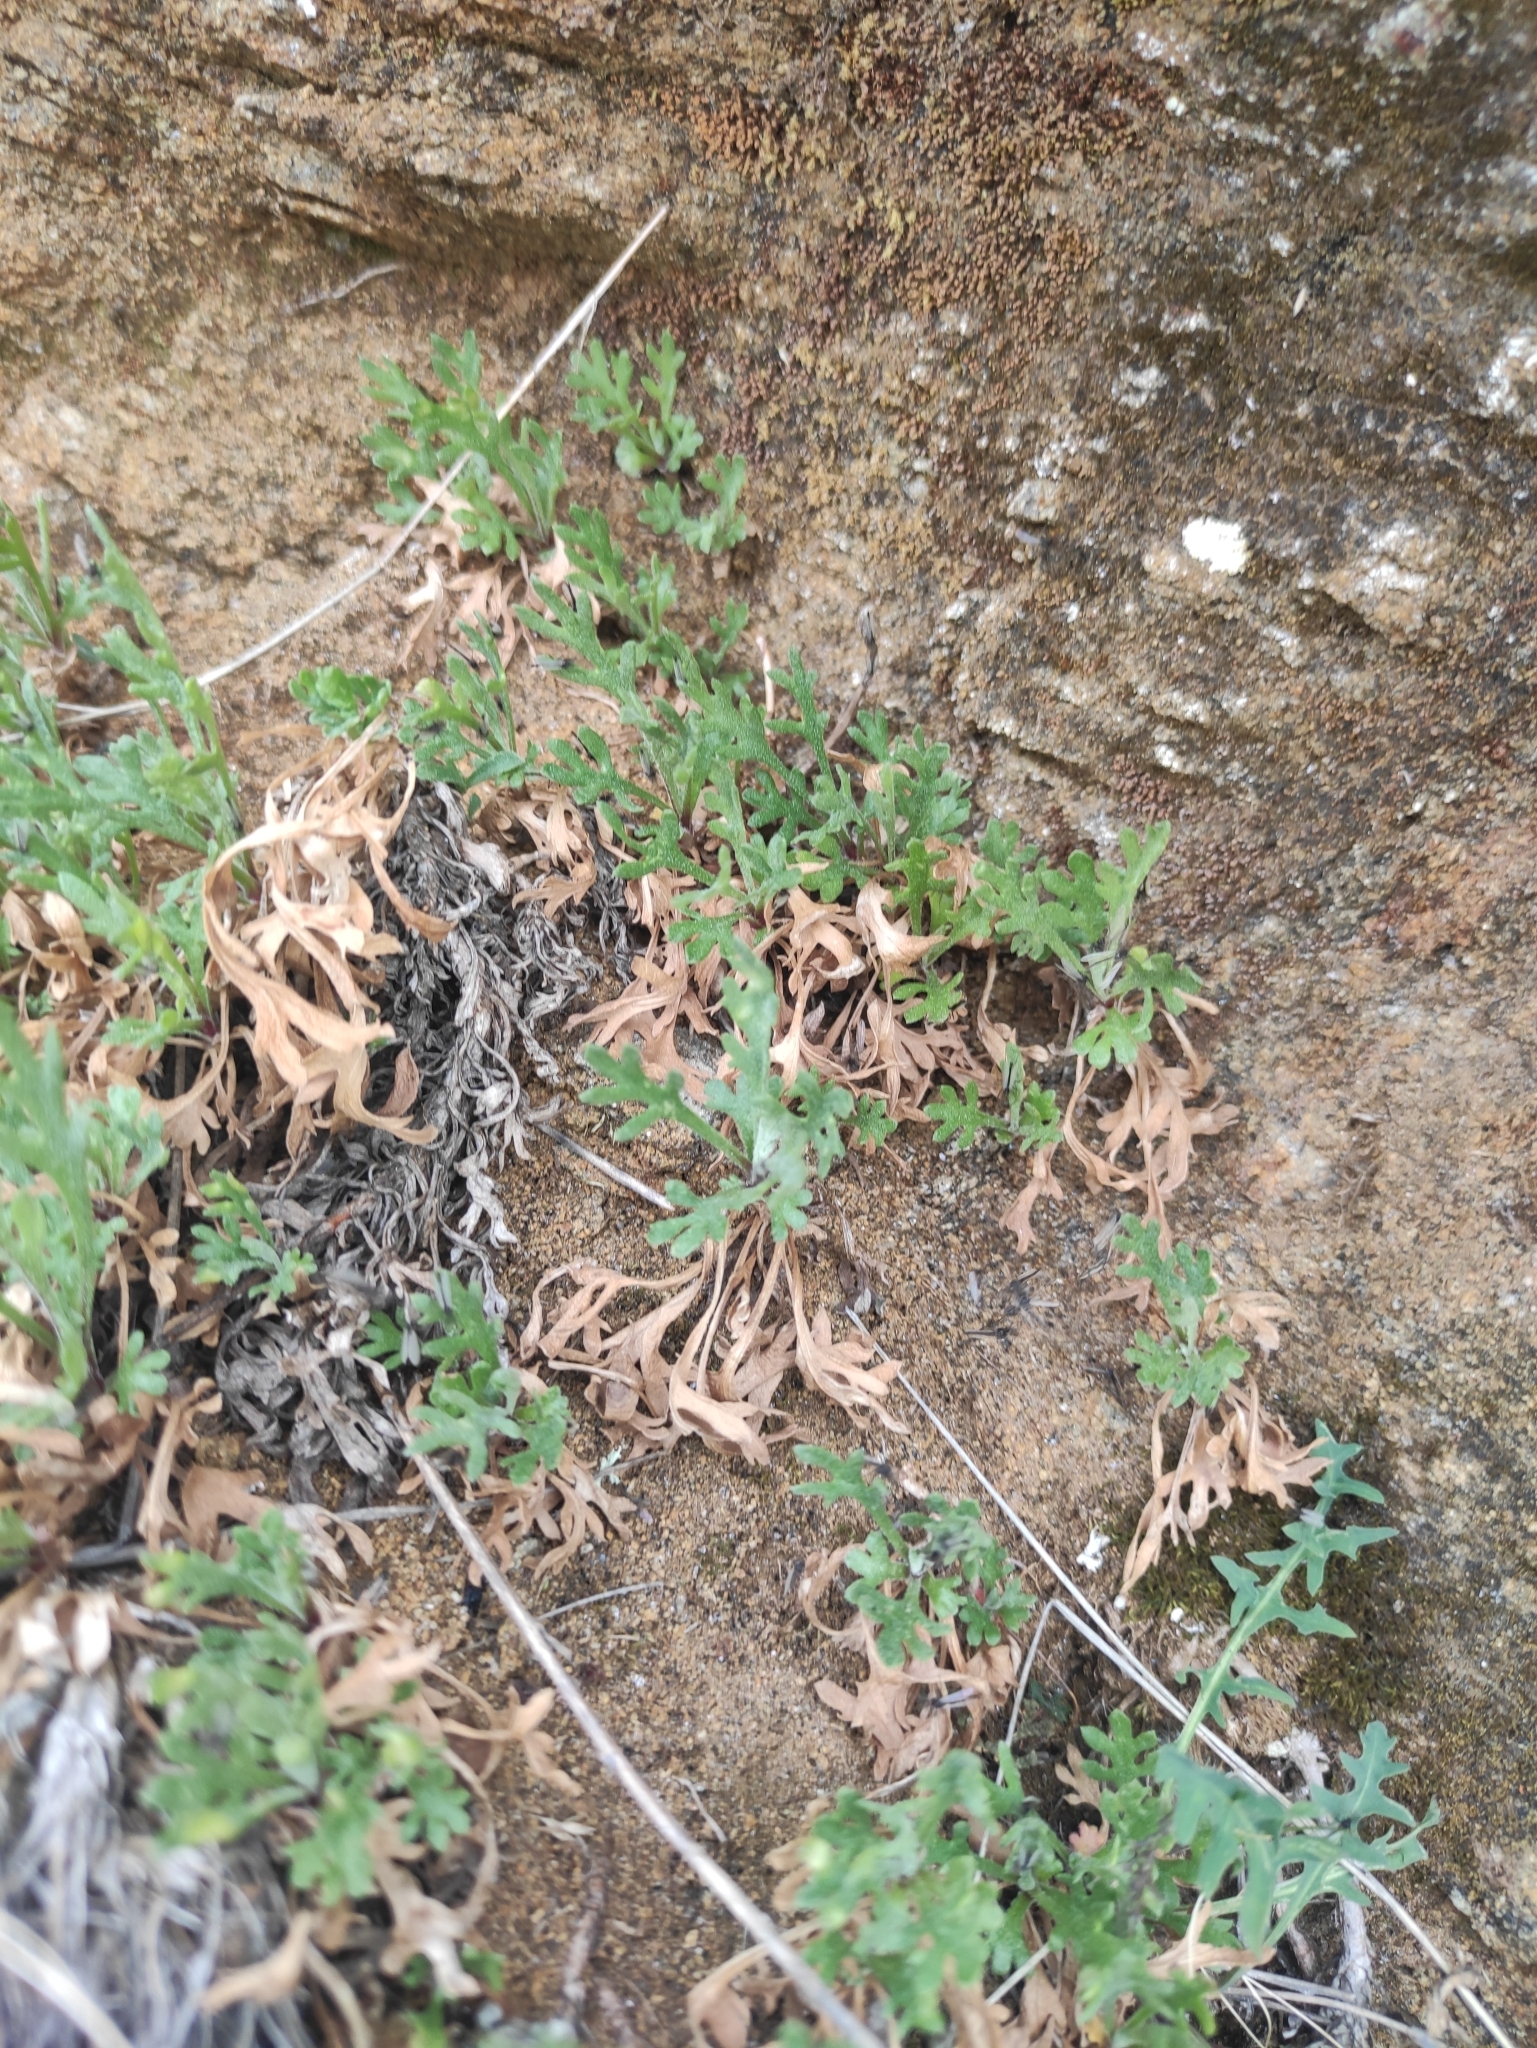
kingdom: Plantae
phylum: Tracheophyta
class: Magnoliopsida
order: Asterales
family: Asteraceae
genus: Chrysanthemum
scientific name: Chrysanthemum zawadzkii
